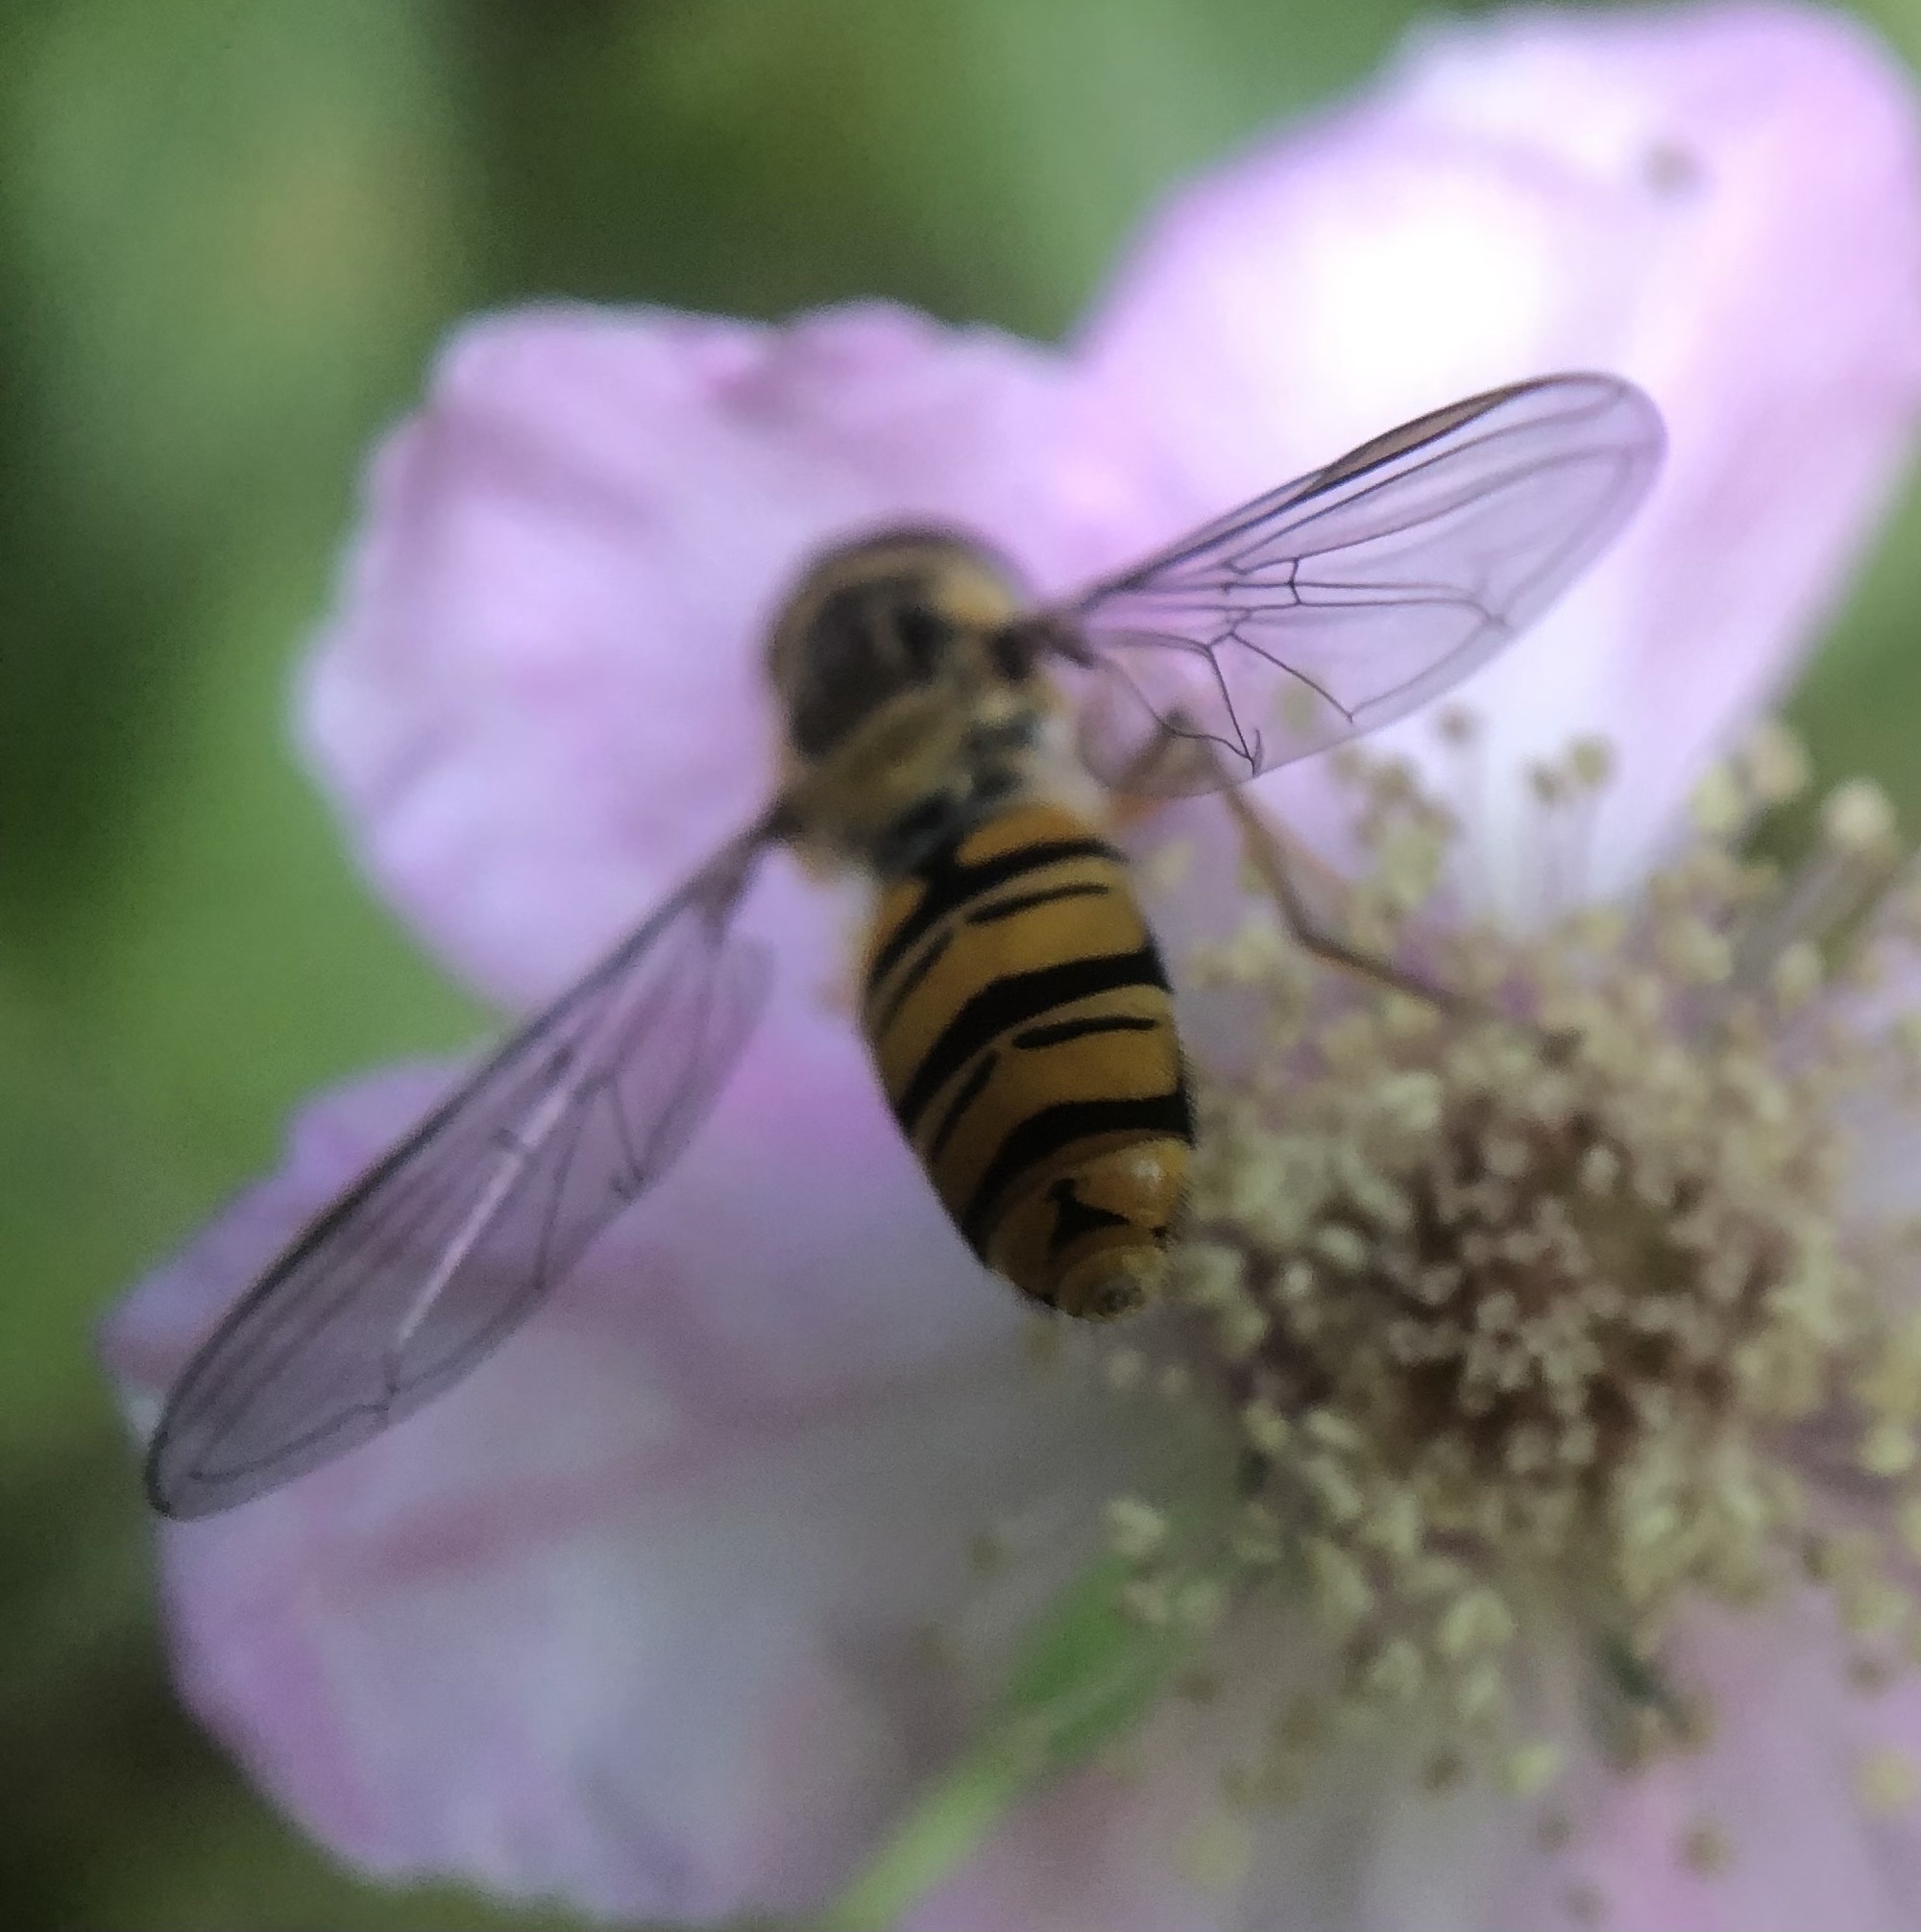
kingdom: Animalia
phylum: Arthropoda
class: Insecta
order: Diptera
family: Syrphidae
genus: Episyrphus
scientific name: Episyrphus balteatus
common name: Marmalade hoverfly
